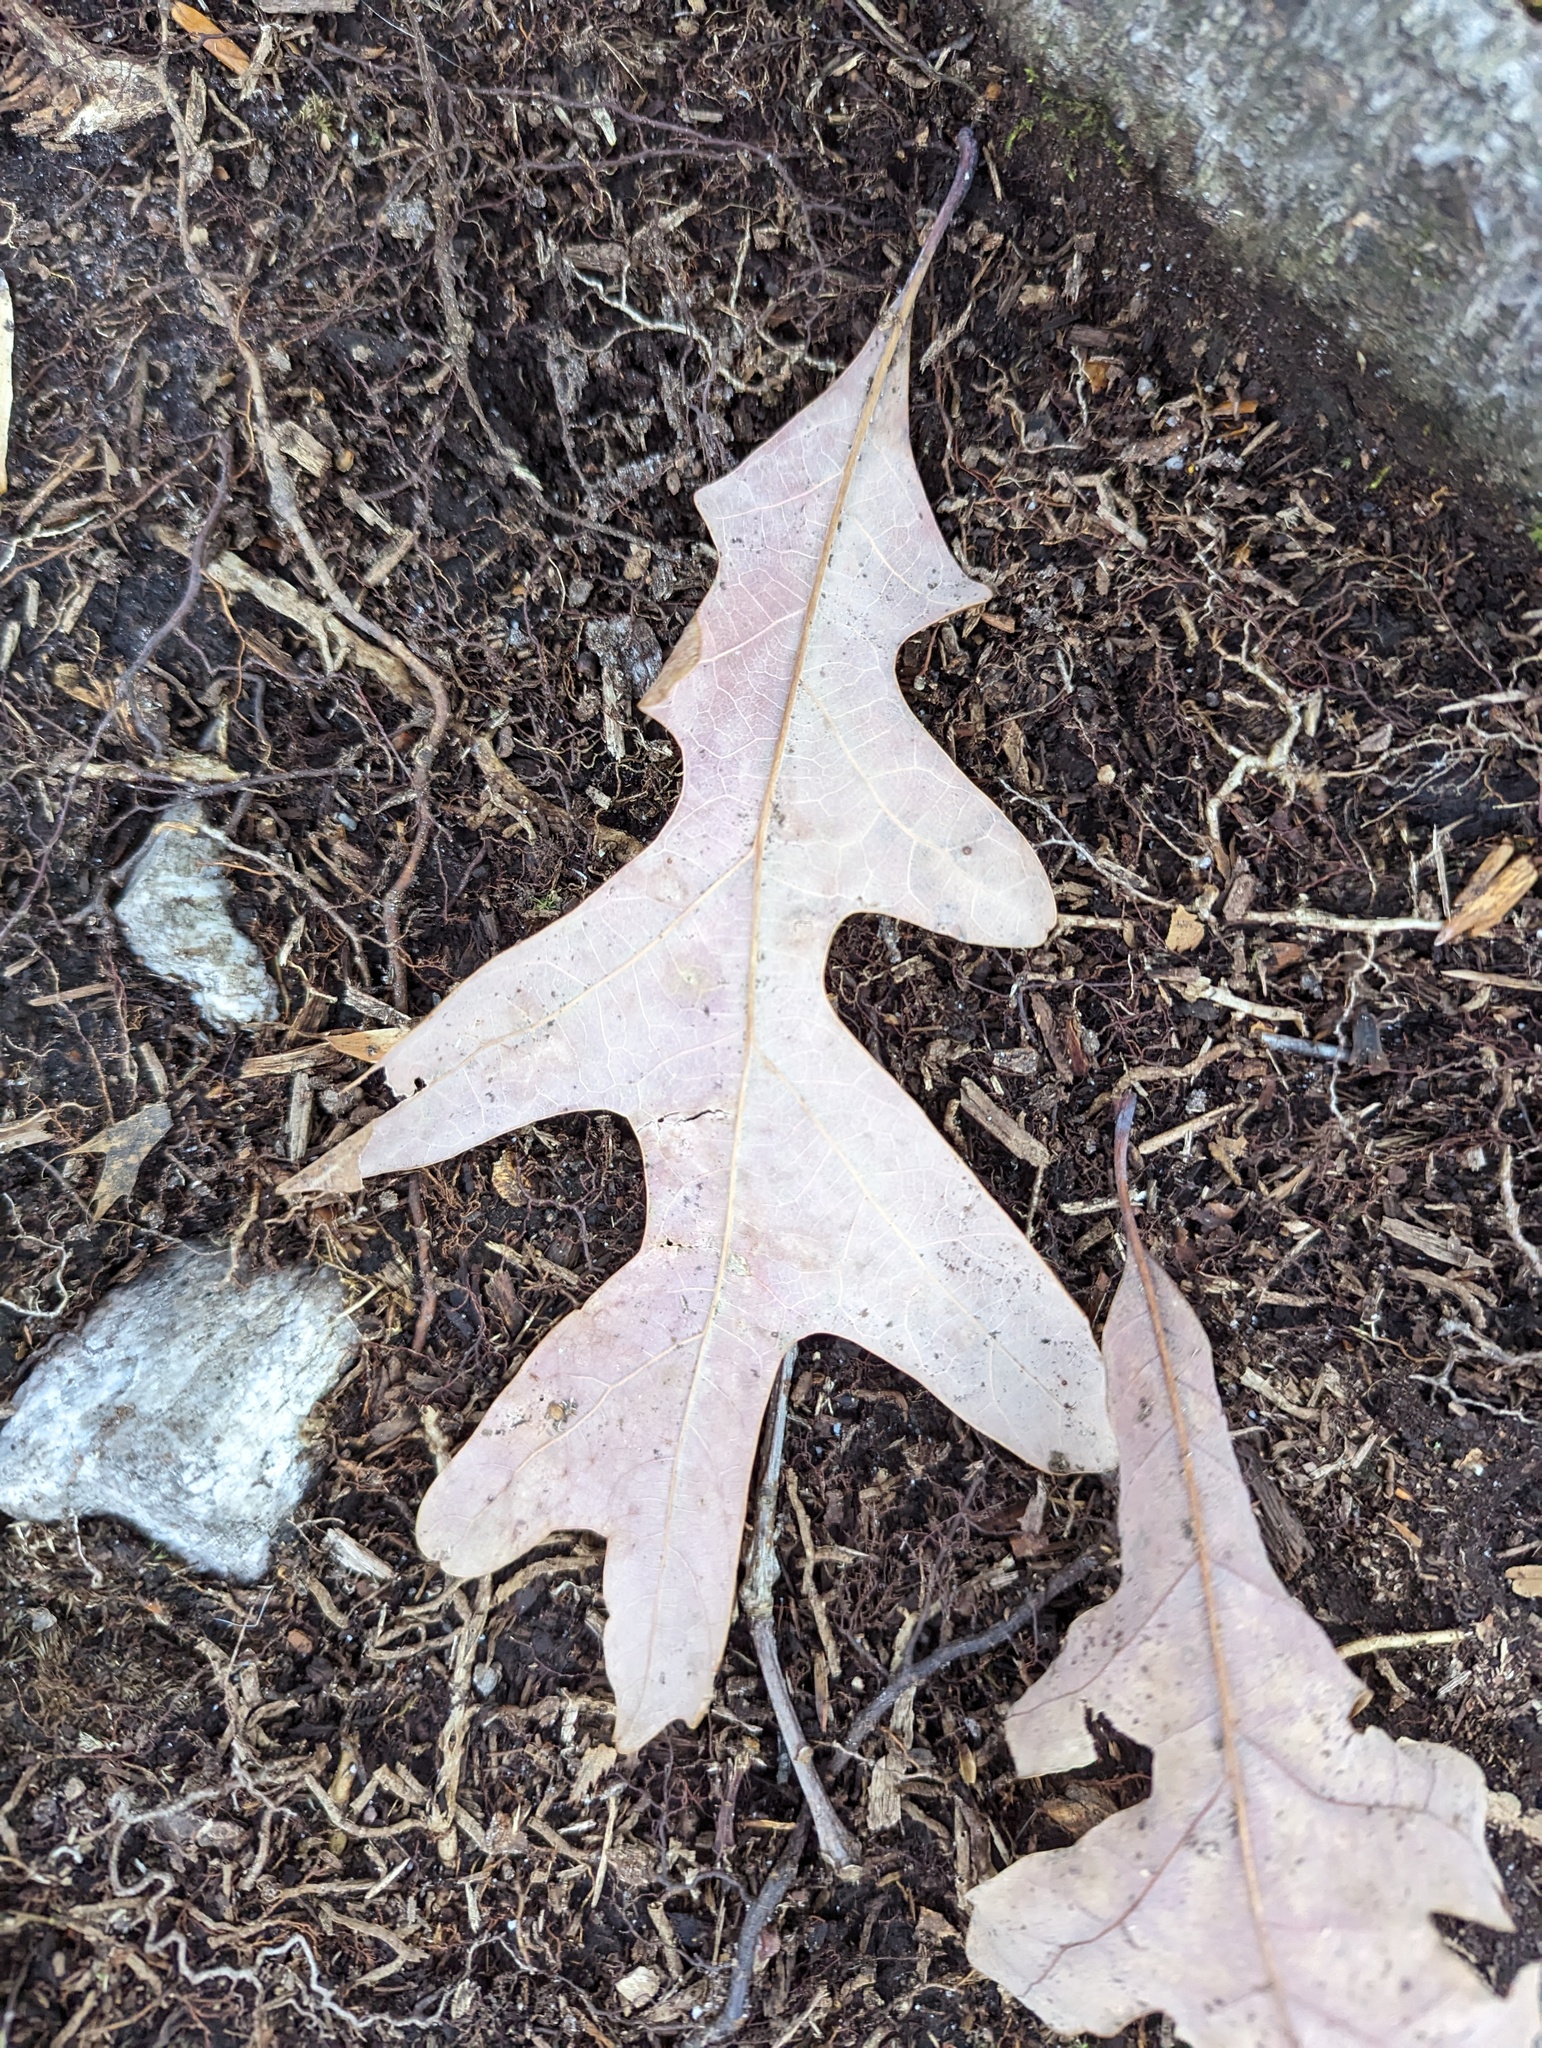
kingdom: Plantae
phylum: Tracheophyta
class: Magnoliopsida
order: Fagales
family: Fagaceae
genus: Quercus
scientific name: Quercus alba
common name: White oak
